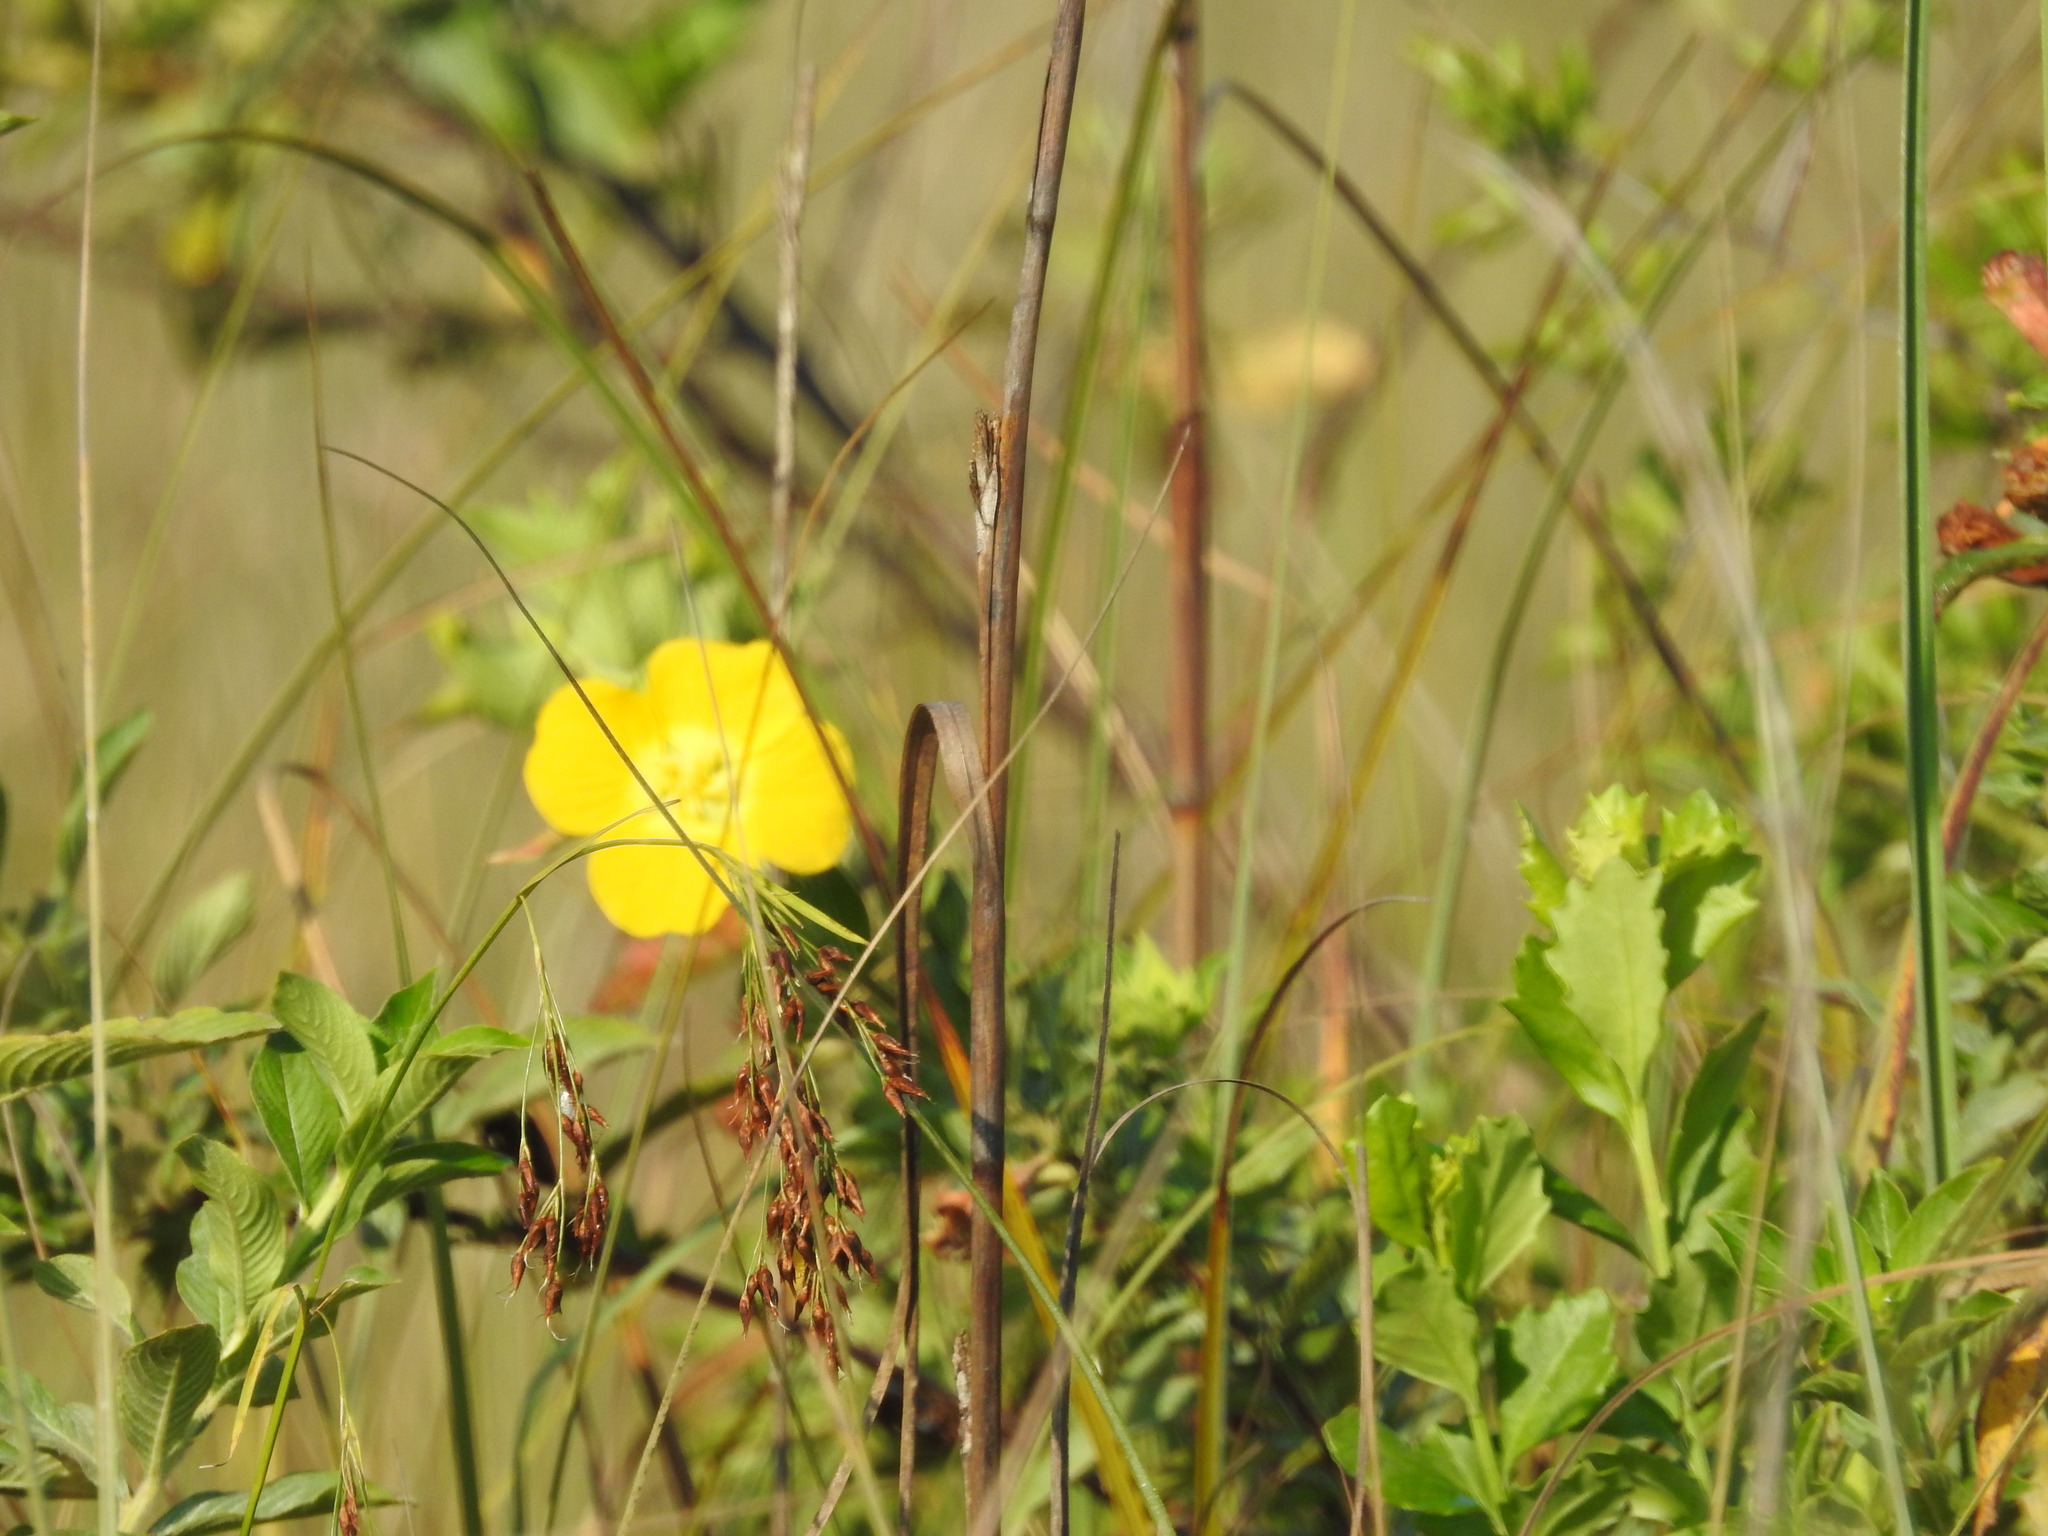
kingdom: Plantae
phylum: Tracheophyta
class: Magnoliopsida
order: Myrtales
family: Onagraceae
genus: Ludwigia
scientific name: Ludwigia peruviana
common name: Peruvian primrose-willow
